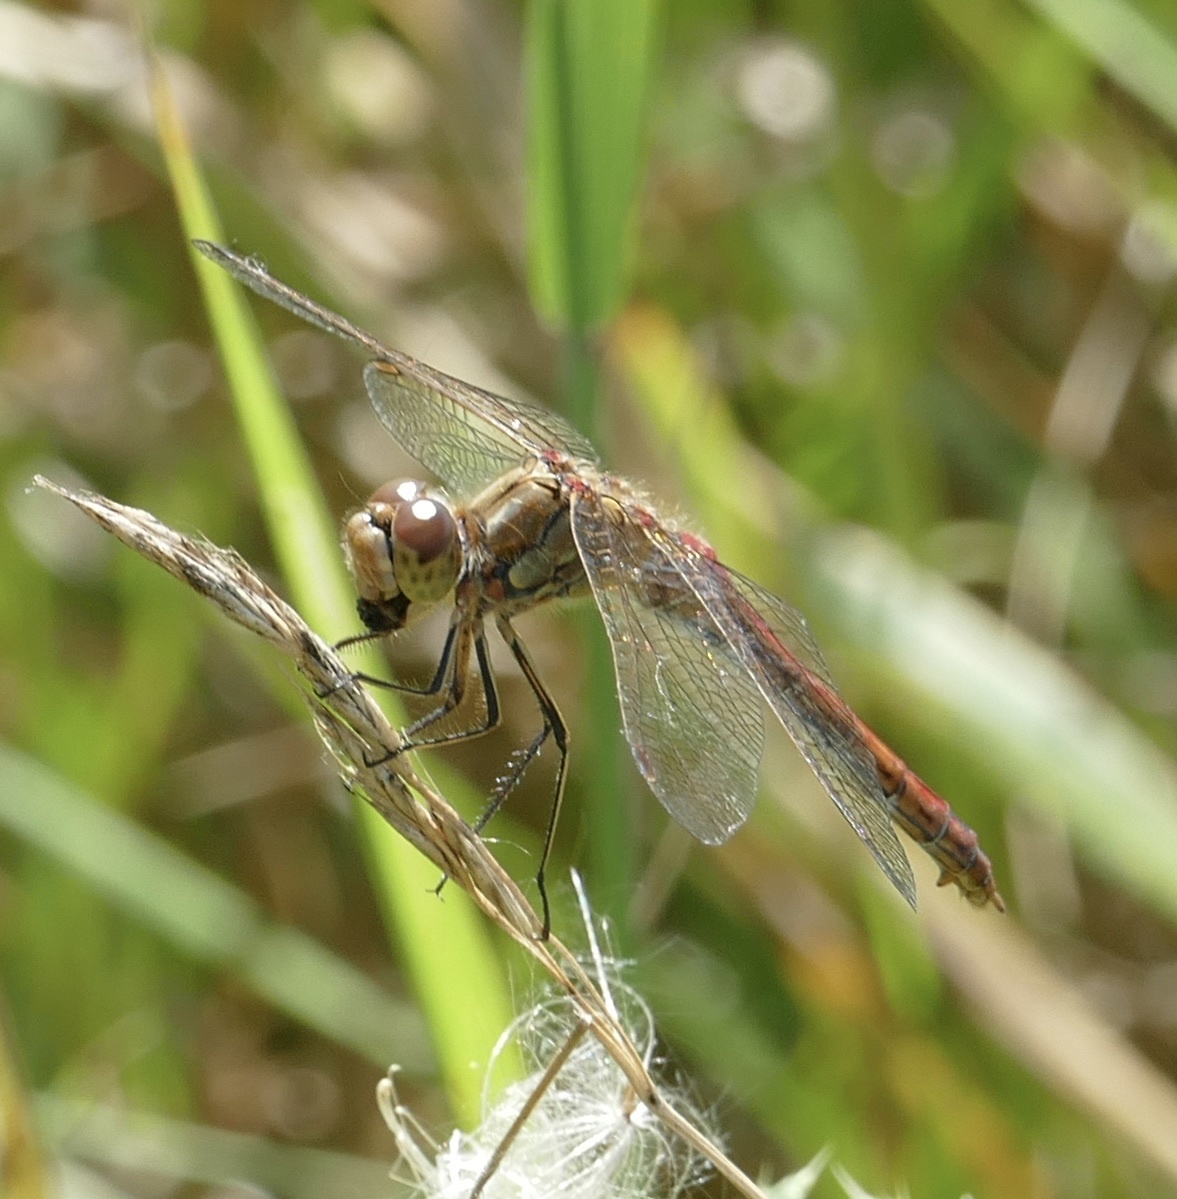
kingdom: Animalia
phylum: Arthropoda
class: Insecta
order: Odonata
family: Libellulidae
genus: Sympetrum
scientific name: Sympetrum vulgatum
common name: Vagrant darter
